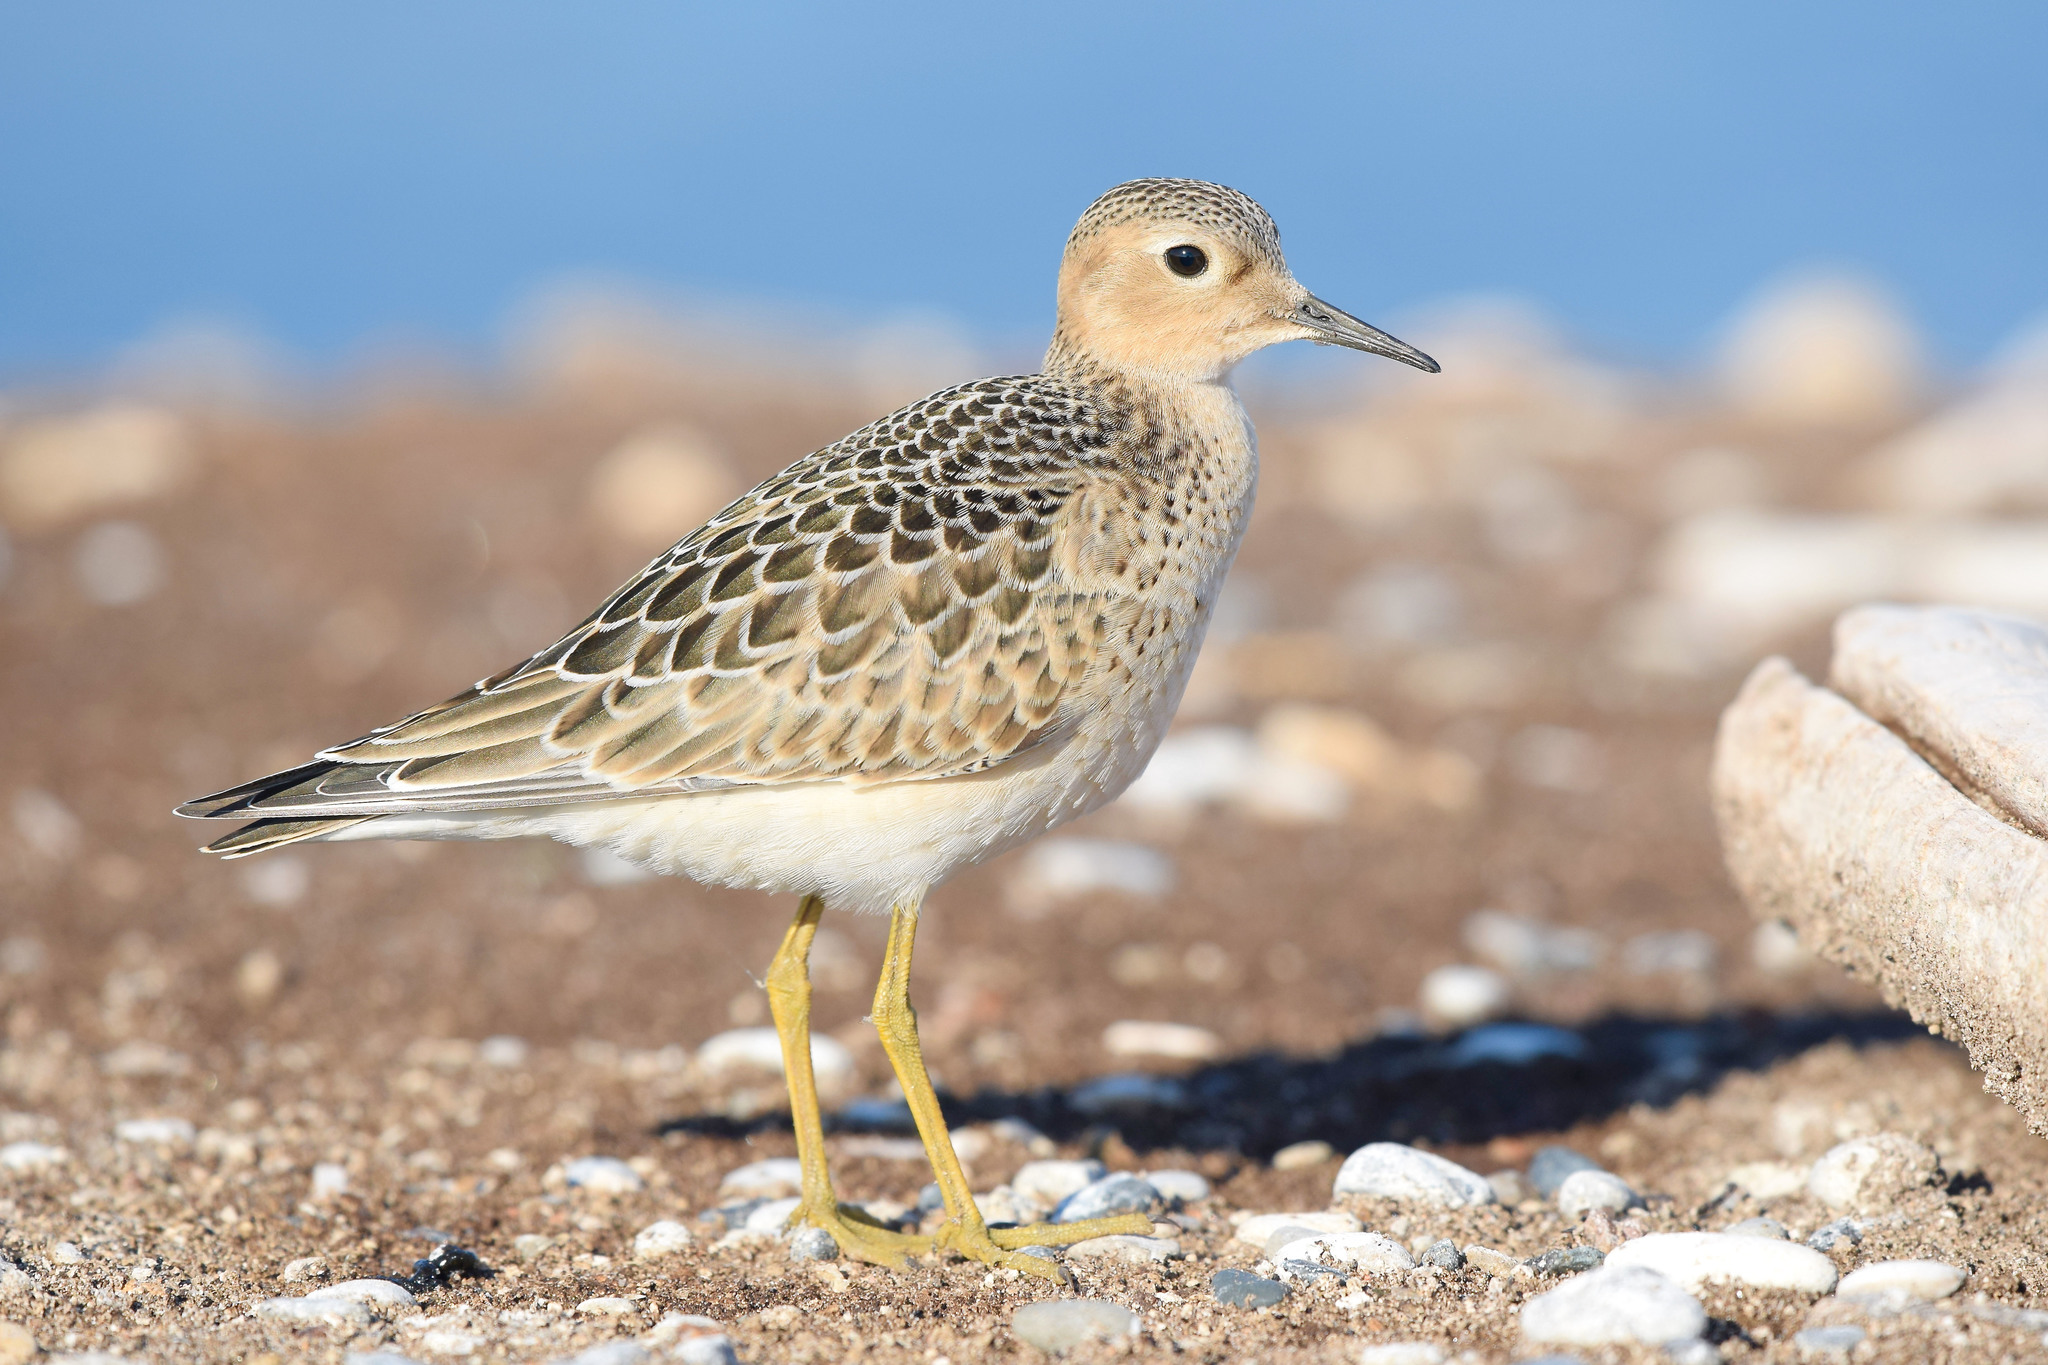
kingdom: Animalia
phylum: Chordata
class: Aves
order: Charadriiformes
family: Scolopacidae
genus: Calidris
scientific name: Calidris subruficollis
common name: Buff-breasted sandpiper
